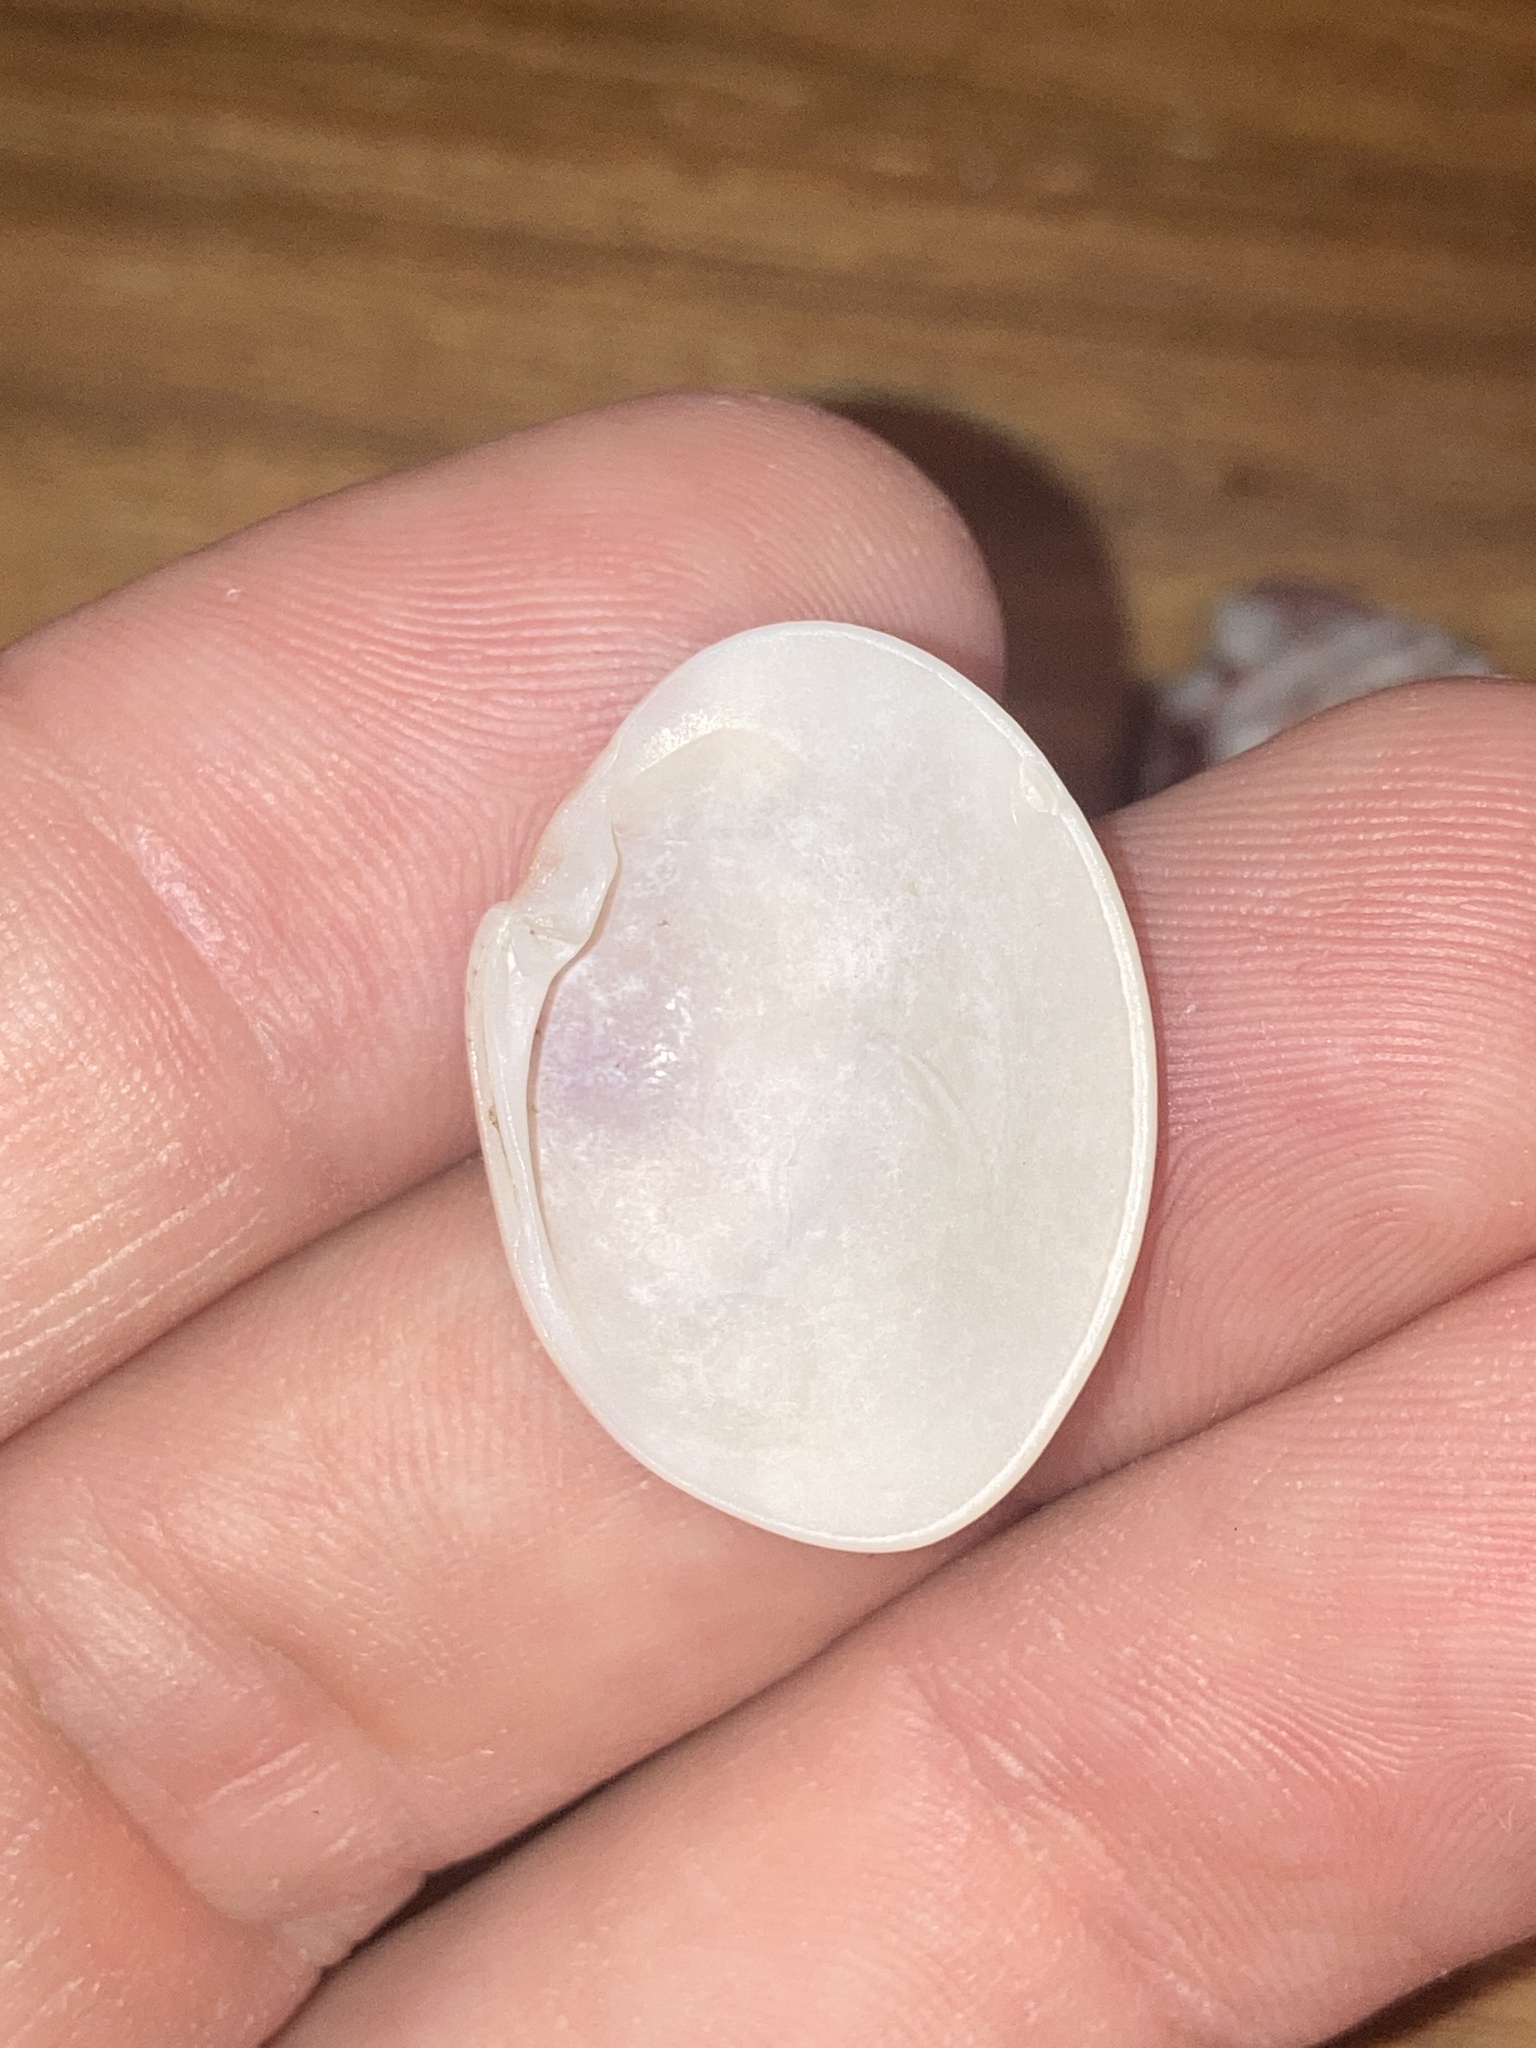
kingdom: Animalia
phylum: Mollusca
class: Bivalvia
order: Venerida
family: Veneridae
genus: Megapitaria
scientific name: Megapitaria maculata
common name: Calico clam
